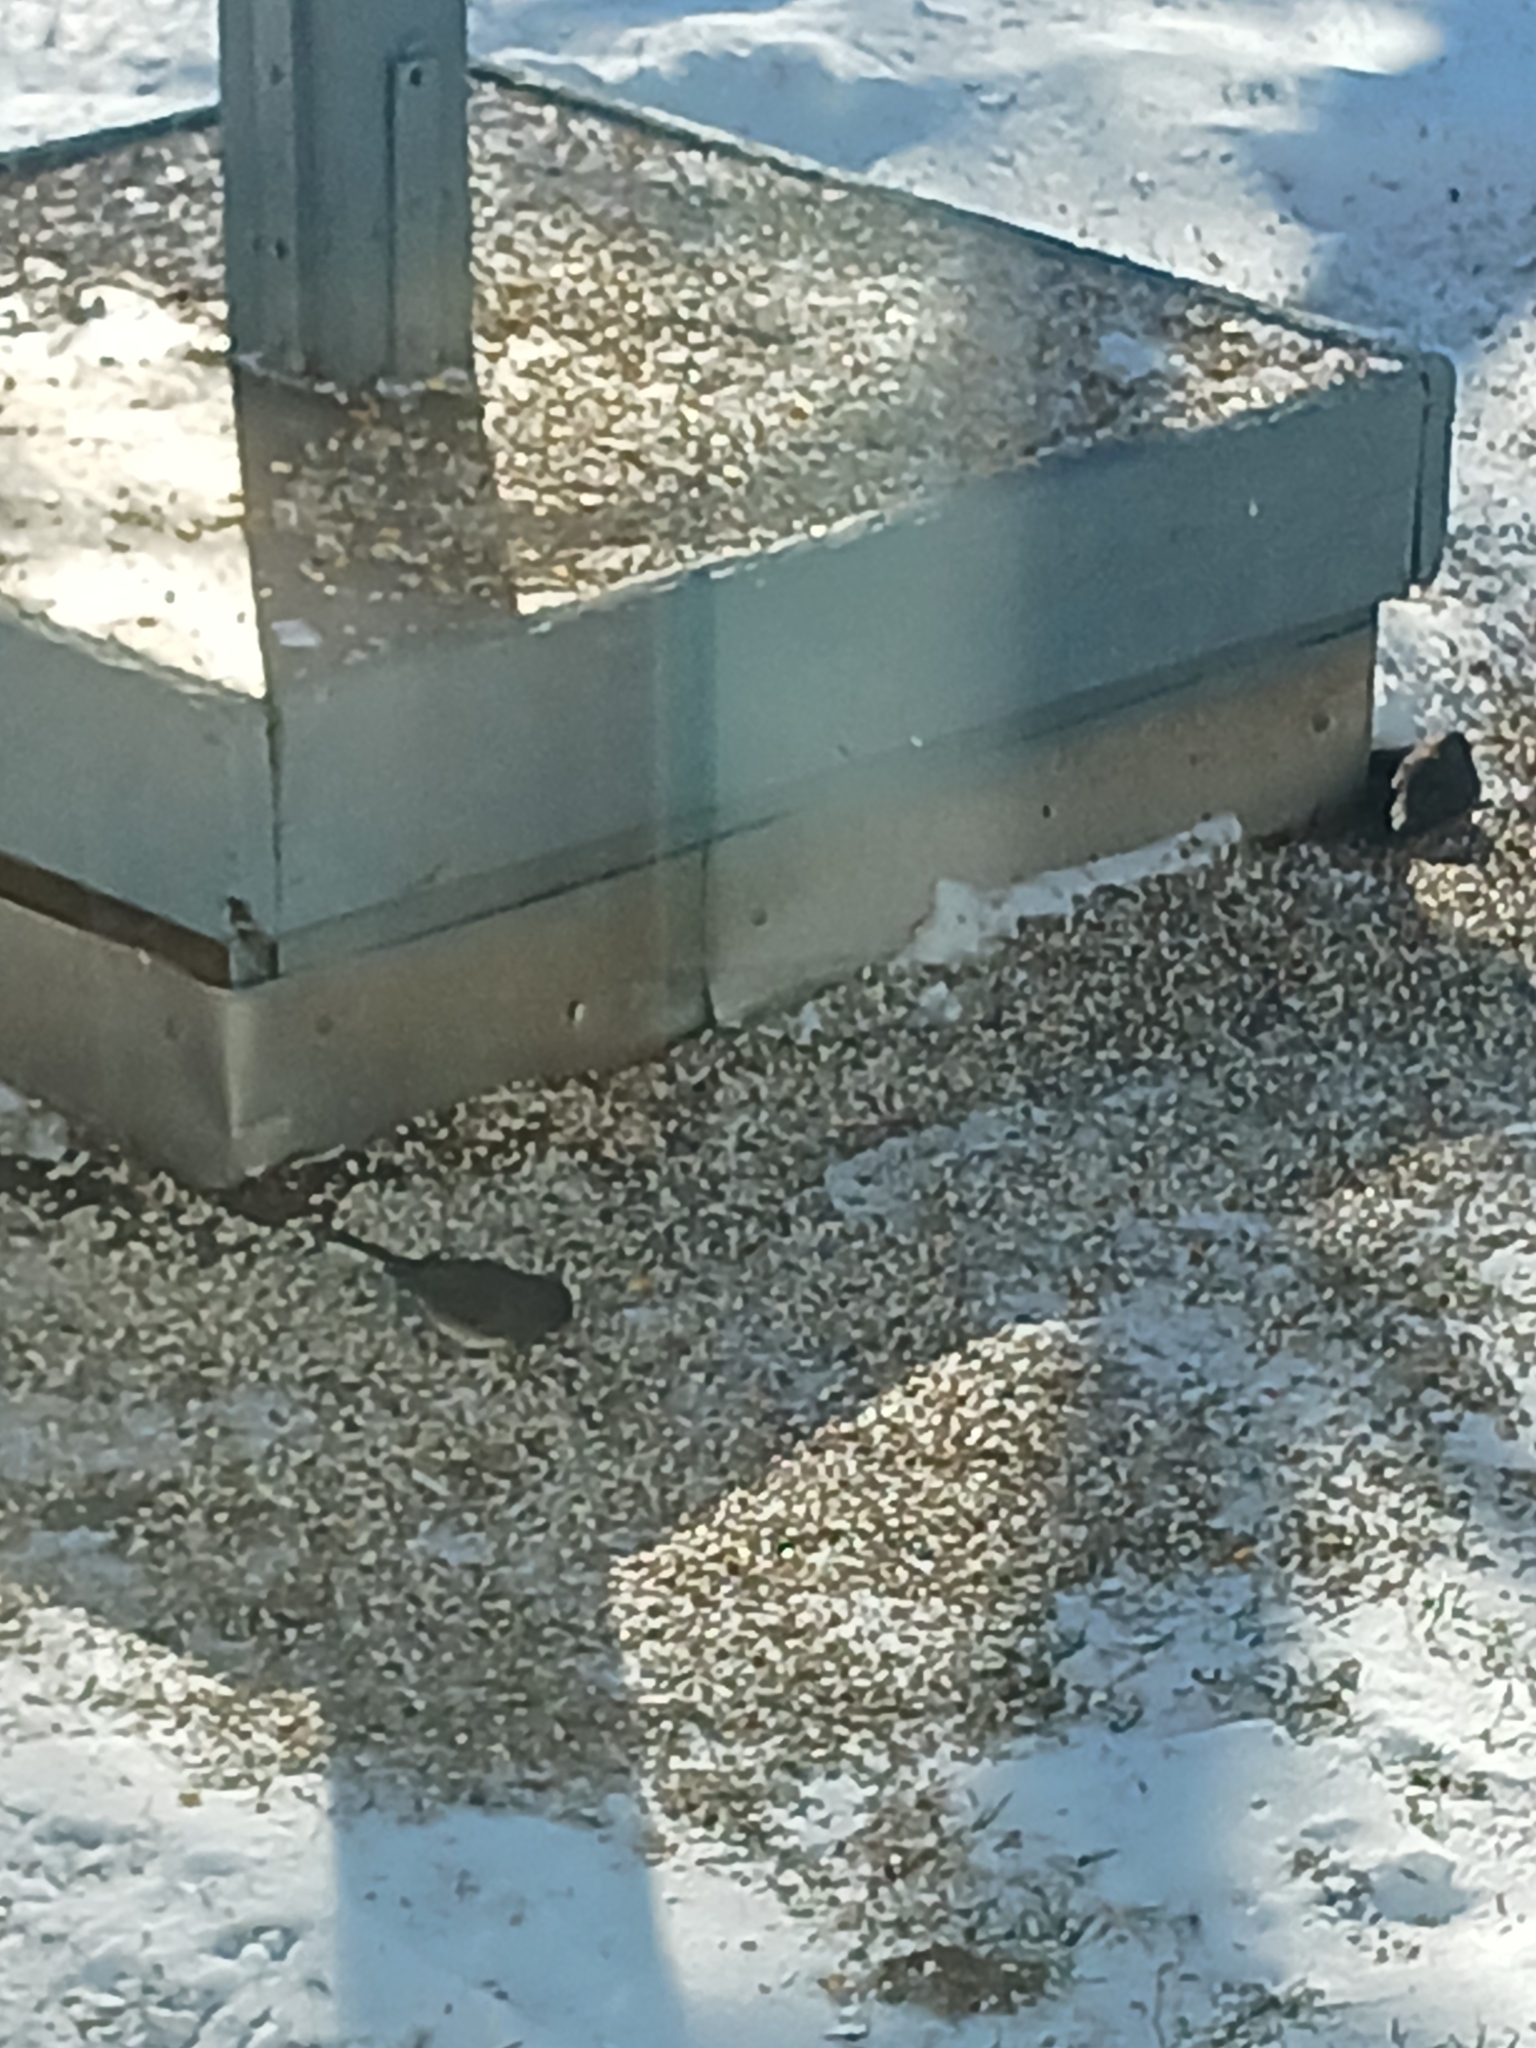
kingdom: Animalia
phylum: Chordata
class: Aves
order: Passeriformes
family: Passerellidae
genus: Junco
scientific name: Junco hyemalis
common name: Dark-eyed junco
